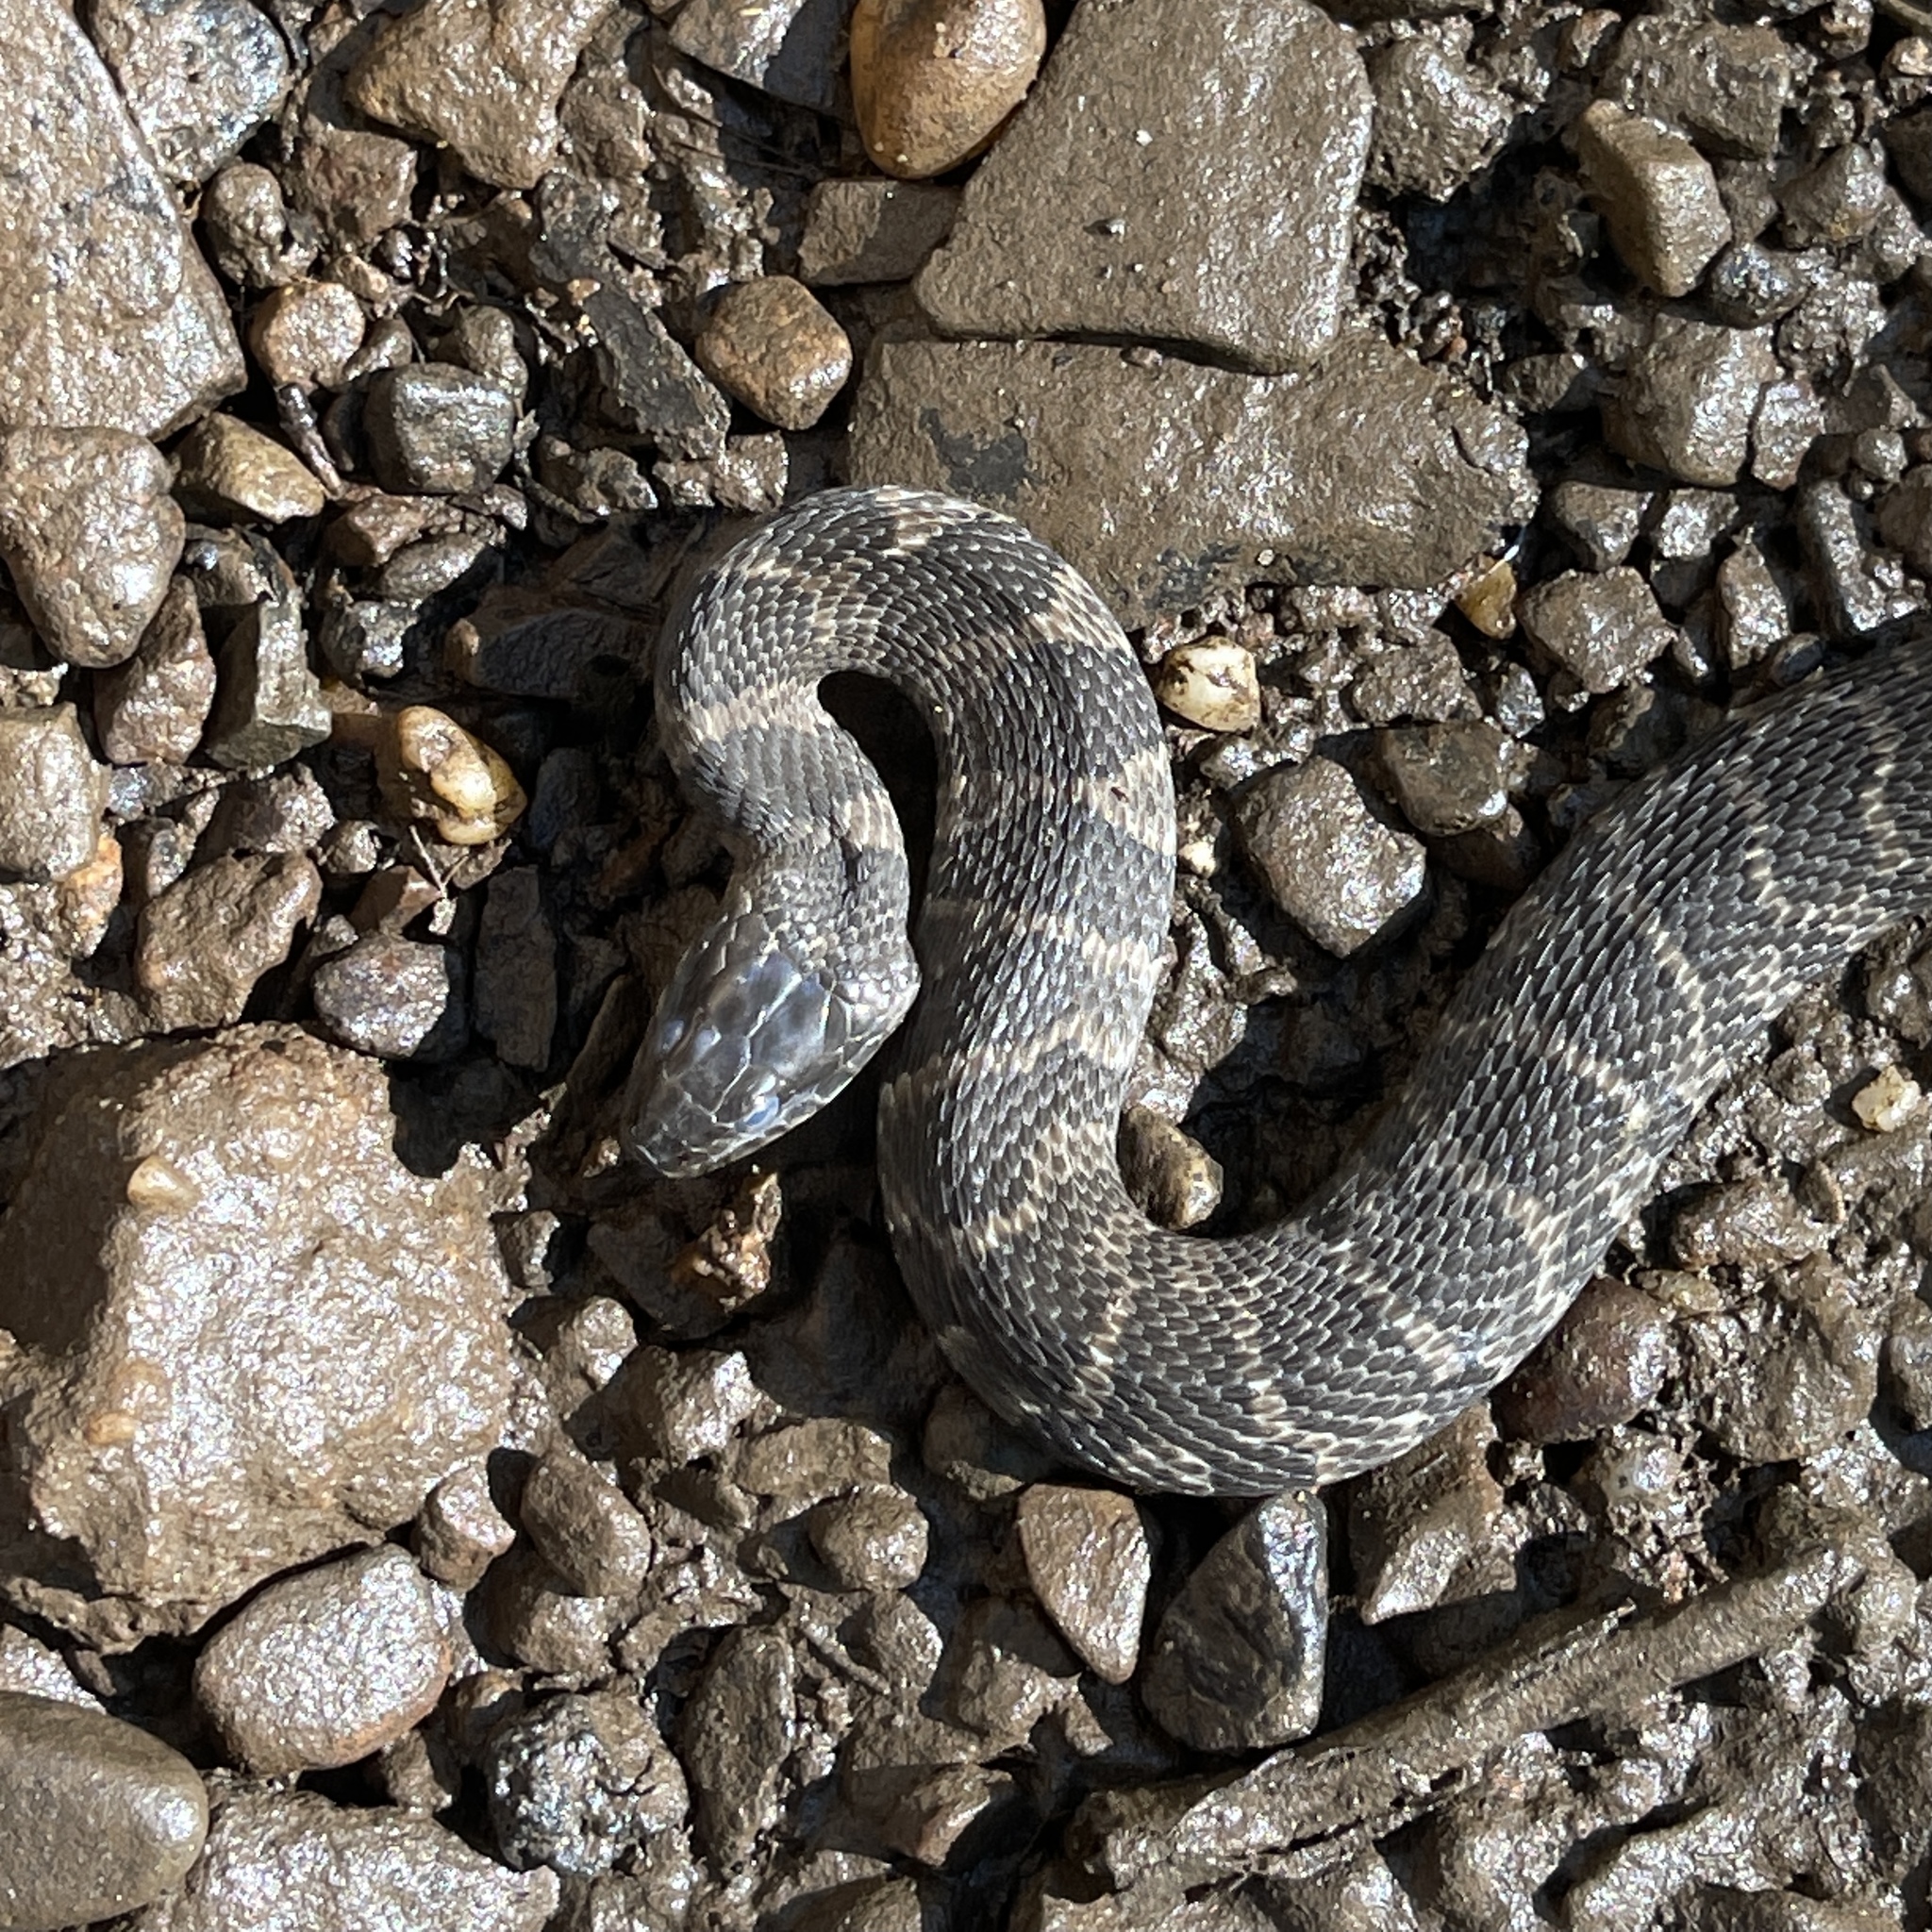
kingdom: Animalia
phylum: Chordata
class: Squamata
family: Colubridae
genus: Nerodia
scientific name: Nerodia sipedon
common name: Northern water snake
